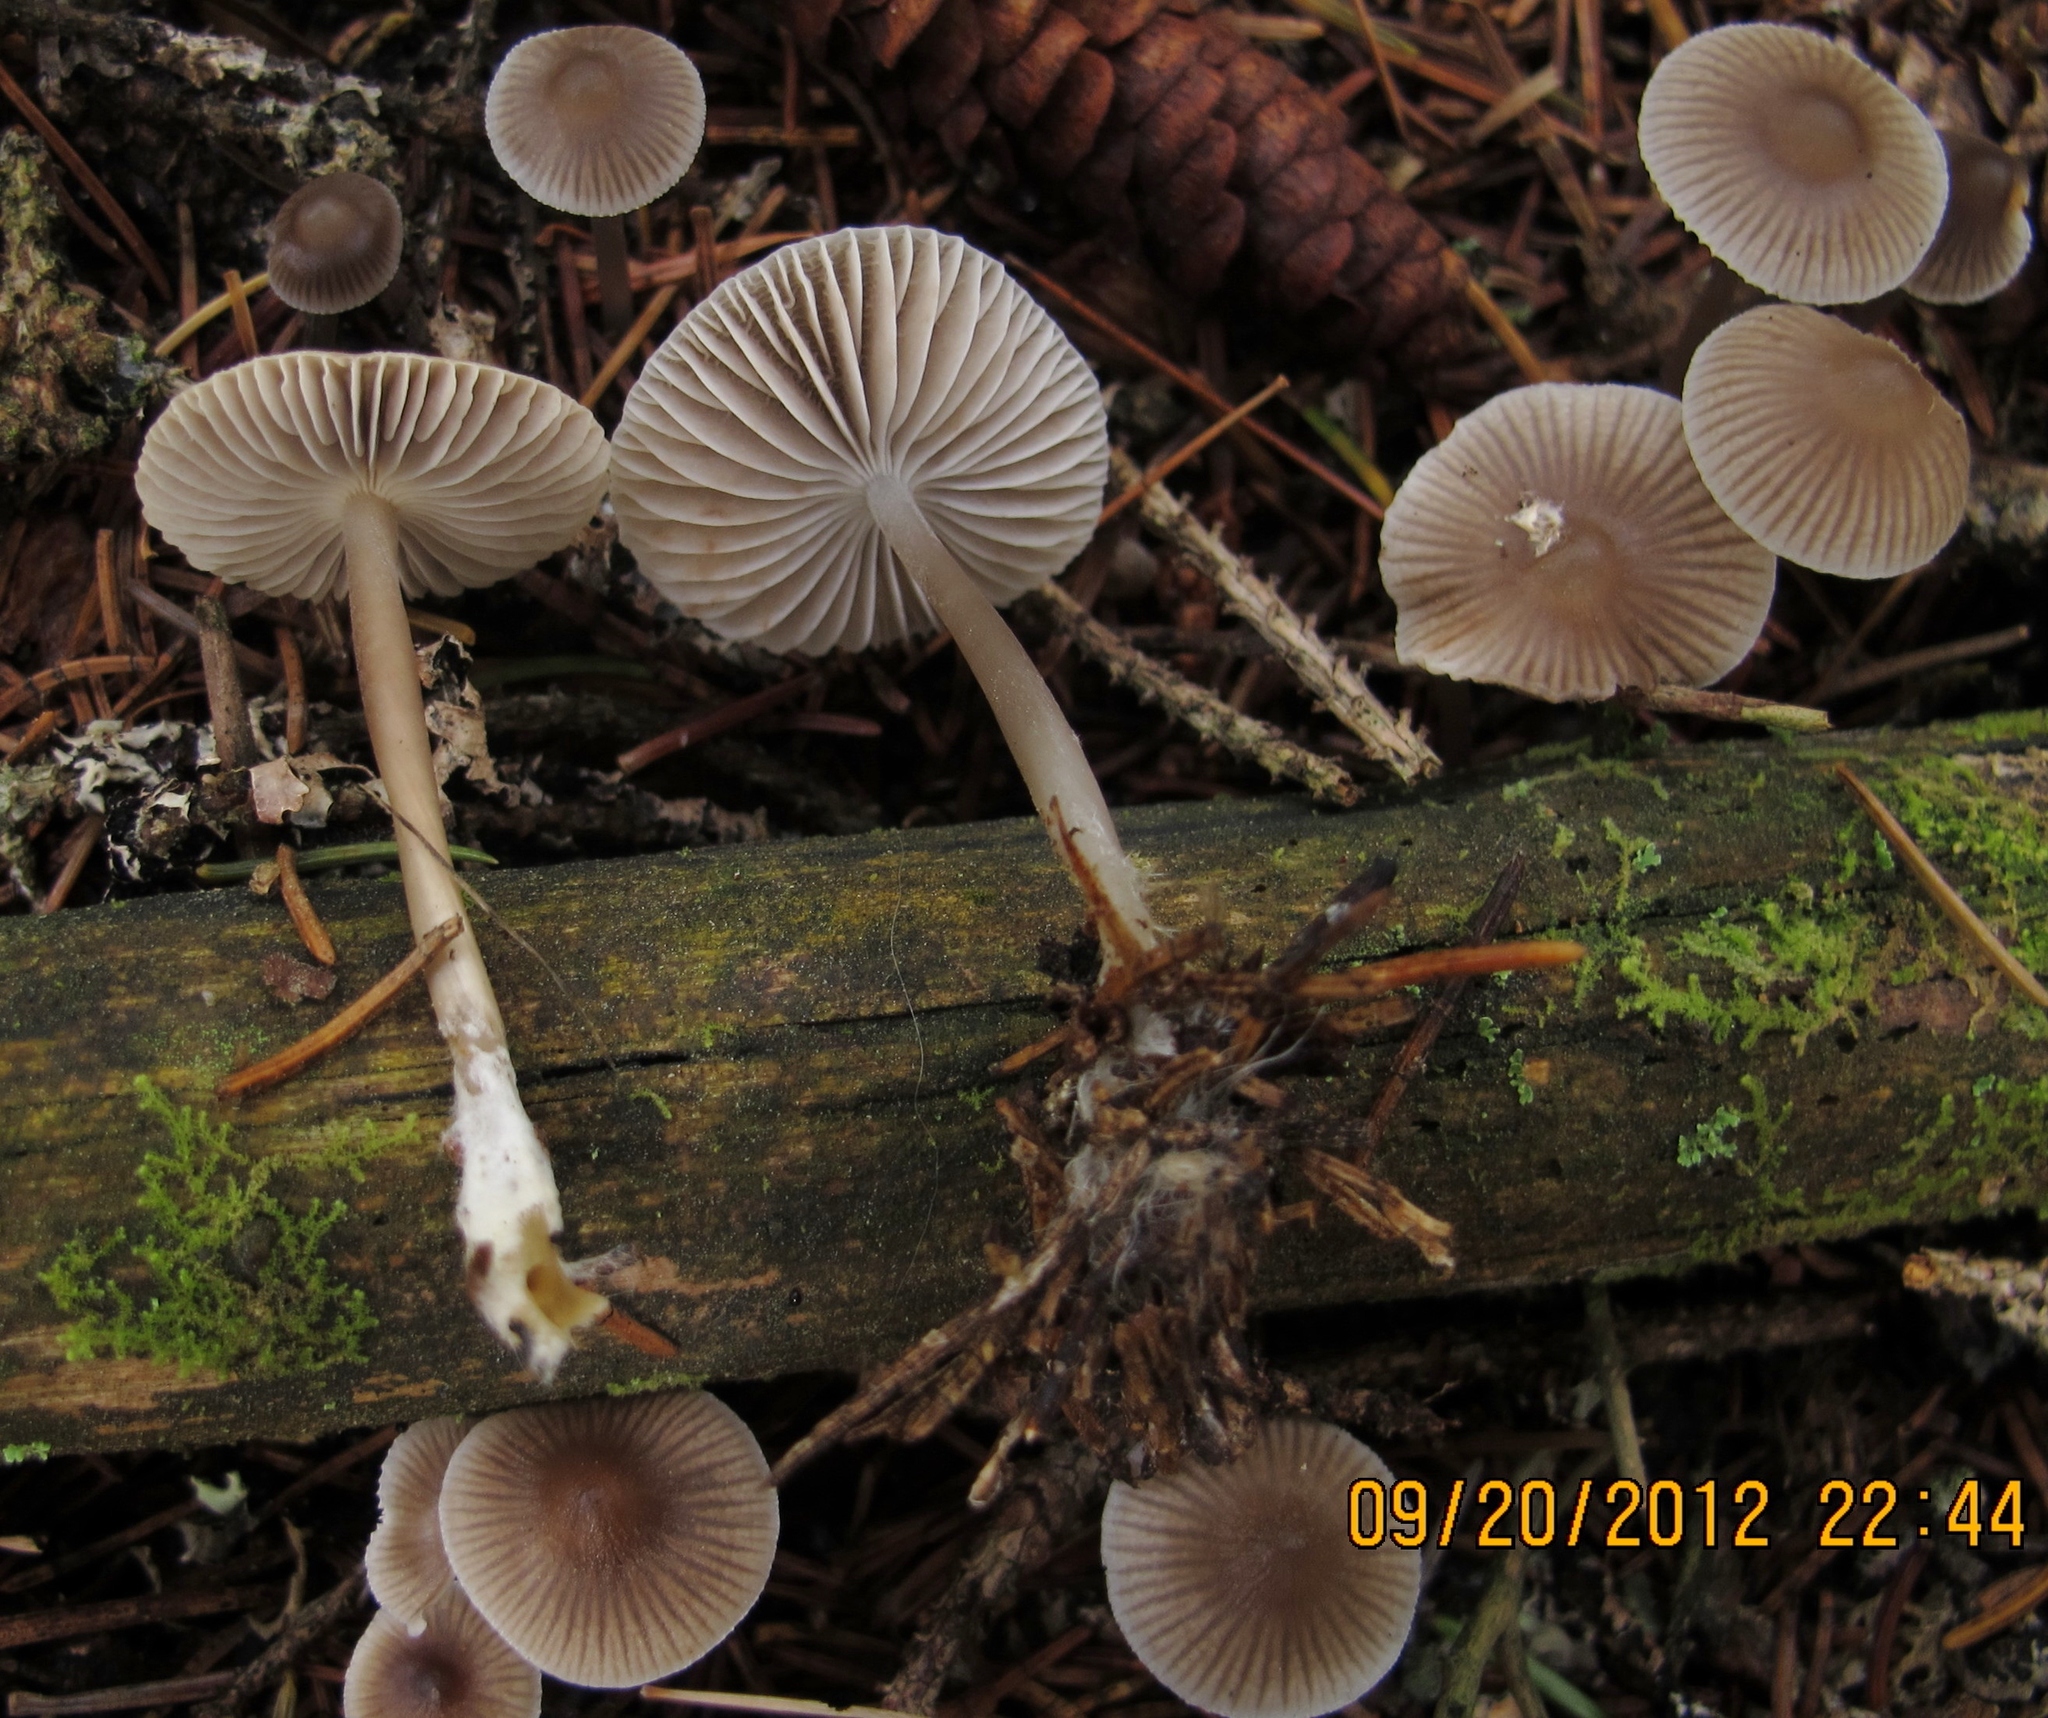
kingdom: Fungi
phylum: Basidiomycota
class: Agaricomycetes
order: Agaricales
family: Mycenaceae
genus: Mycena
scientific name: Mycena vulgaris
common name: Vulgar bonnet
